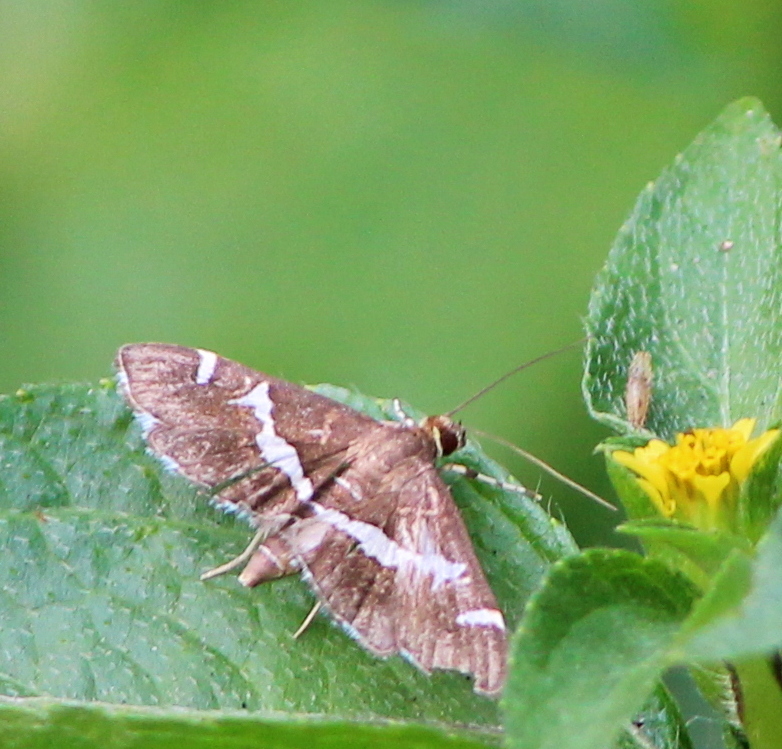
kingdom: Animalia
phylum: Arthropoda
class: Insecta
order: Lepidoptera
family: Crambidae
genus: Spoladea
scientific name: Spoladea recurvalis
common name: Beet webworm moth
